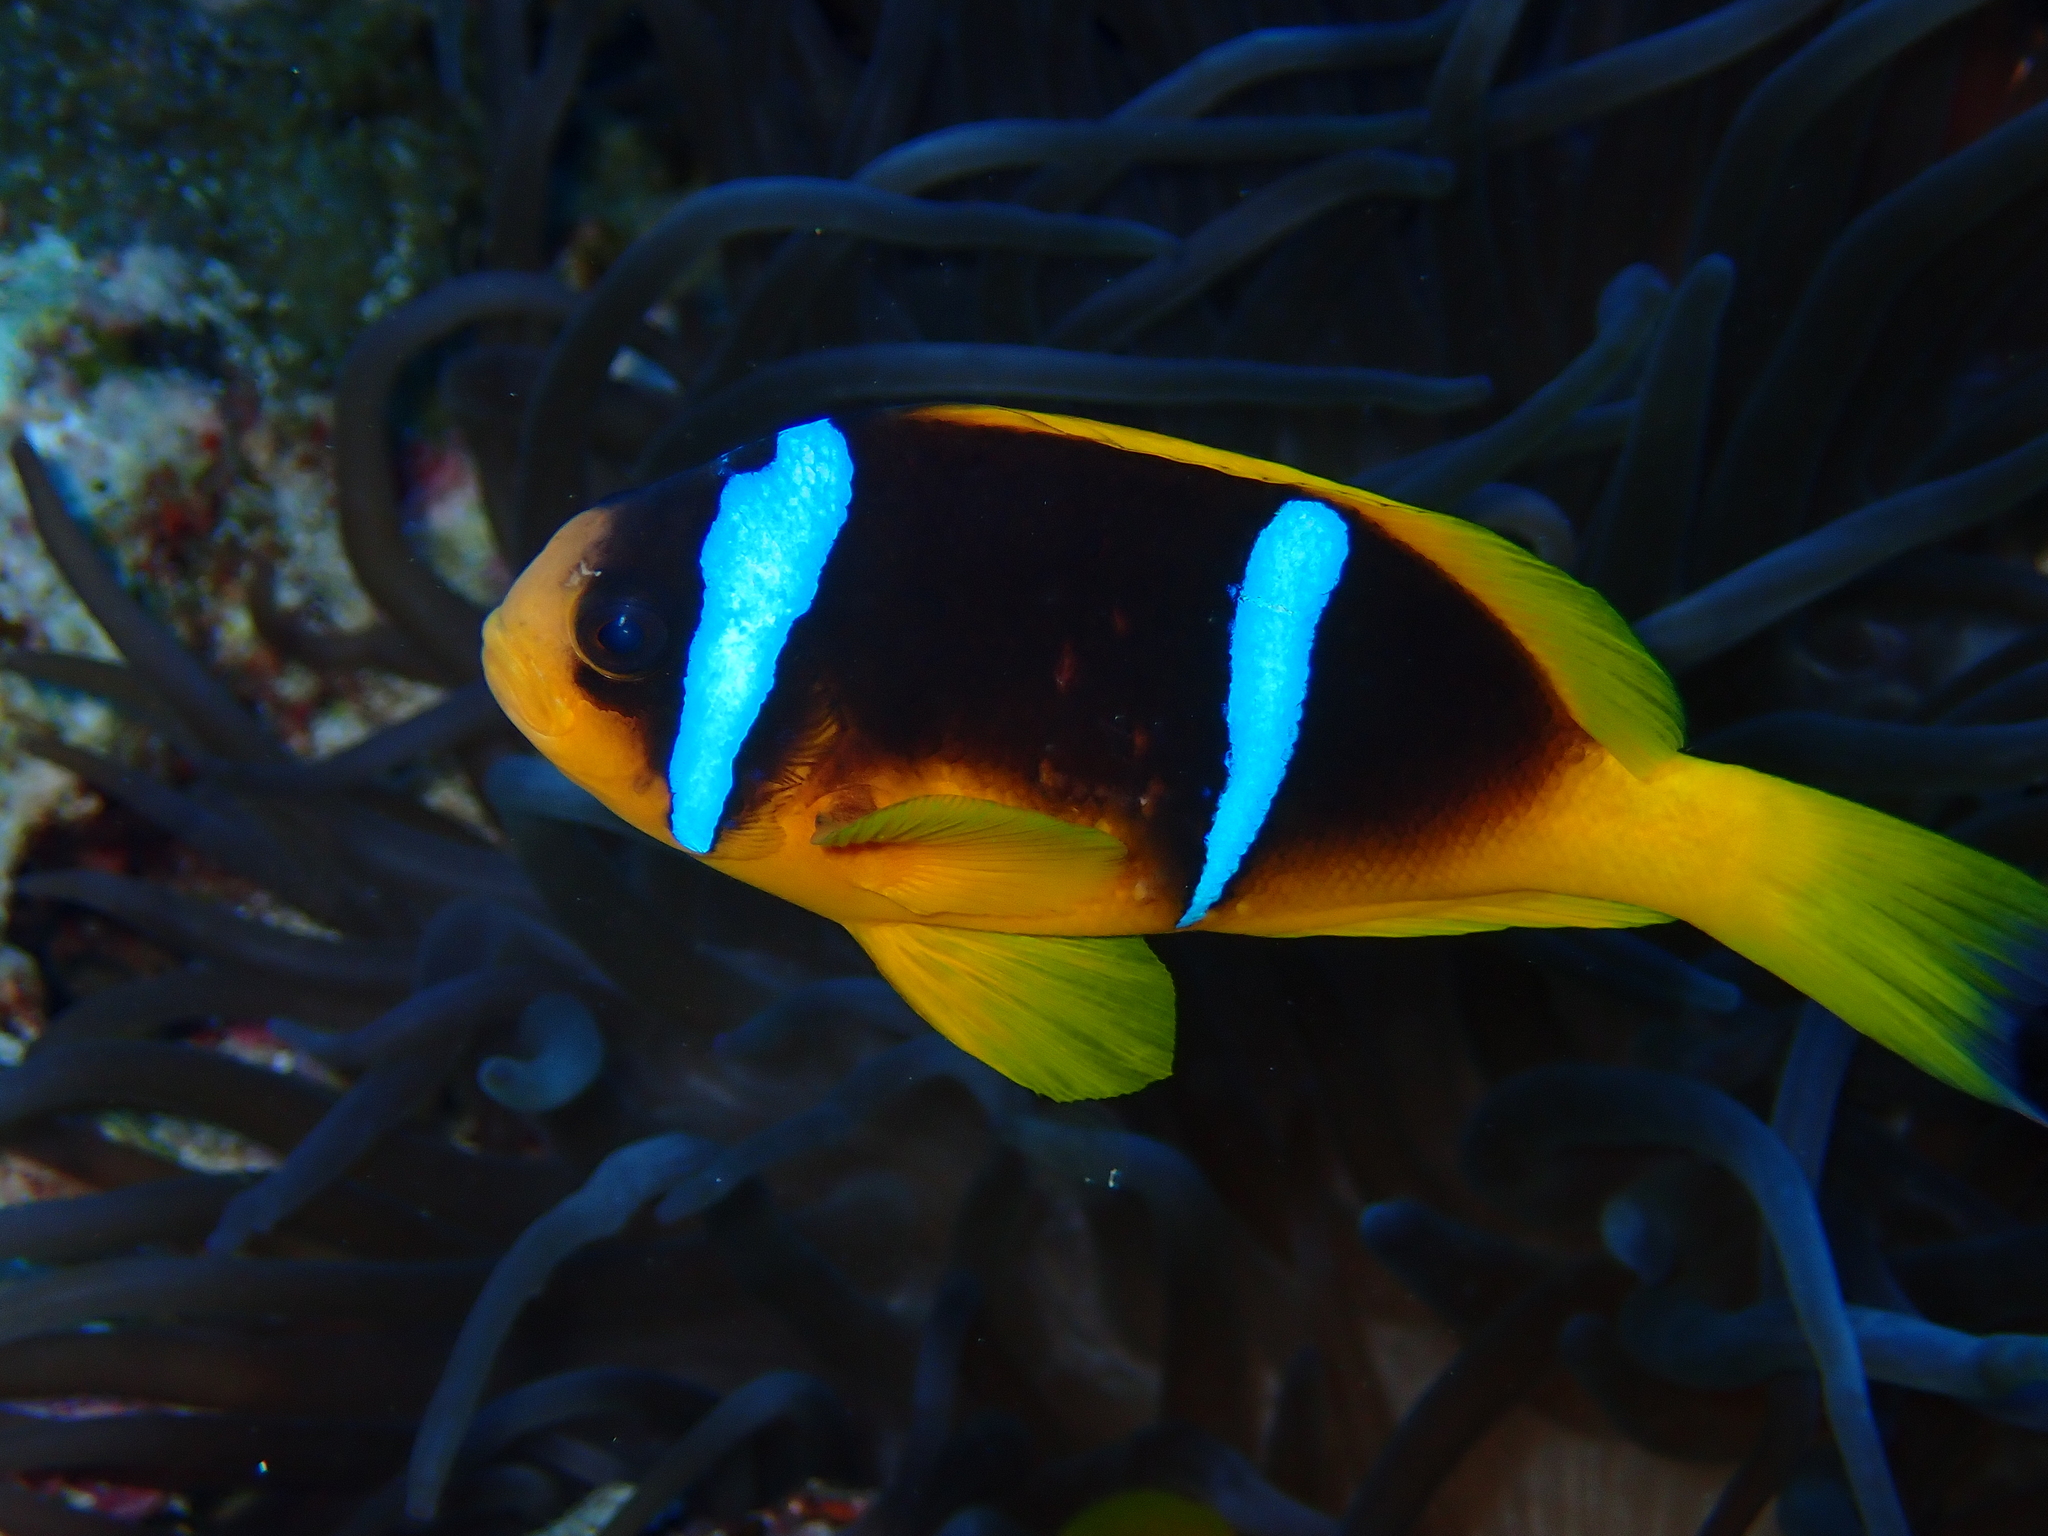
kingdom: Animalia
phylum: Chordata
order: Perciformes
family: Pomacentridae
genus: Amphiprion
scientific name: Amphiprion bicinctus
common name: Two-banded anemonefish
